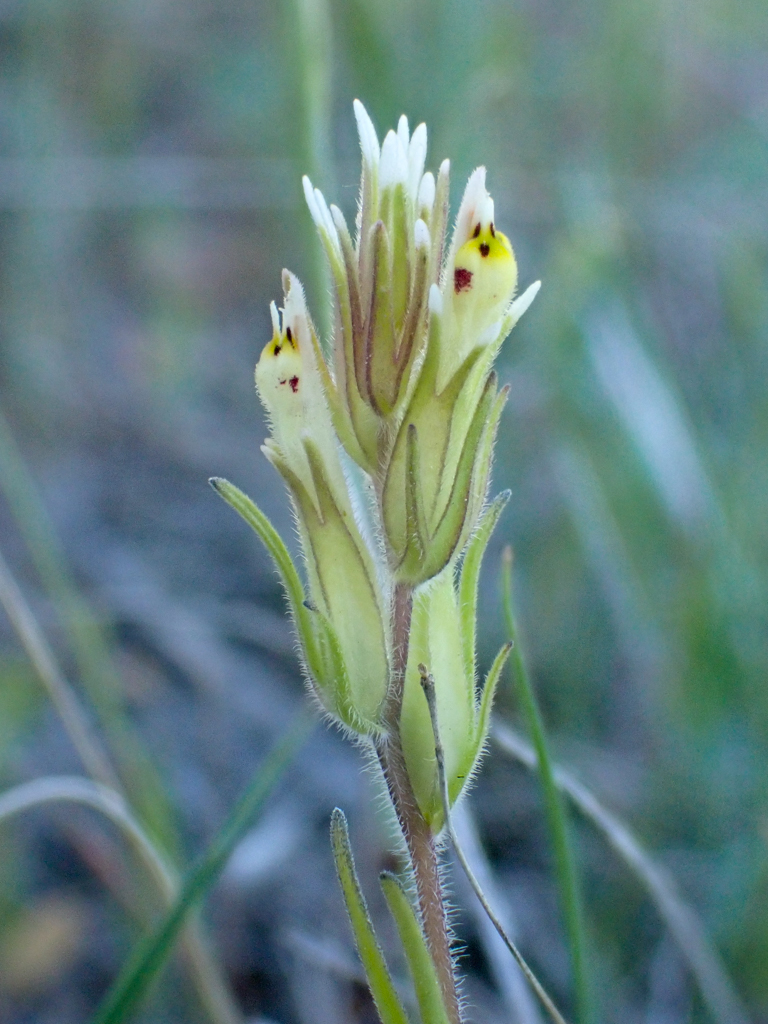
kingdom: Plantae
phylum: Tracheophyta
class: Magnoliopsida
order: Lamiales
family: Orobanchaceae
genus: Castilleja
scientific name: Castilleja attenuata
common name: Valley tassels
